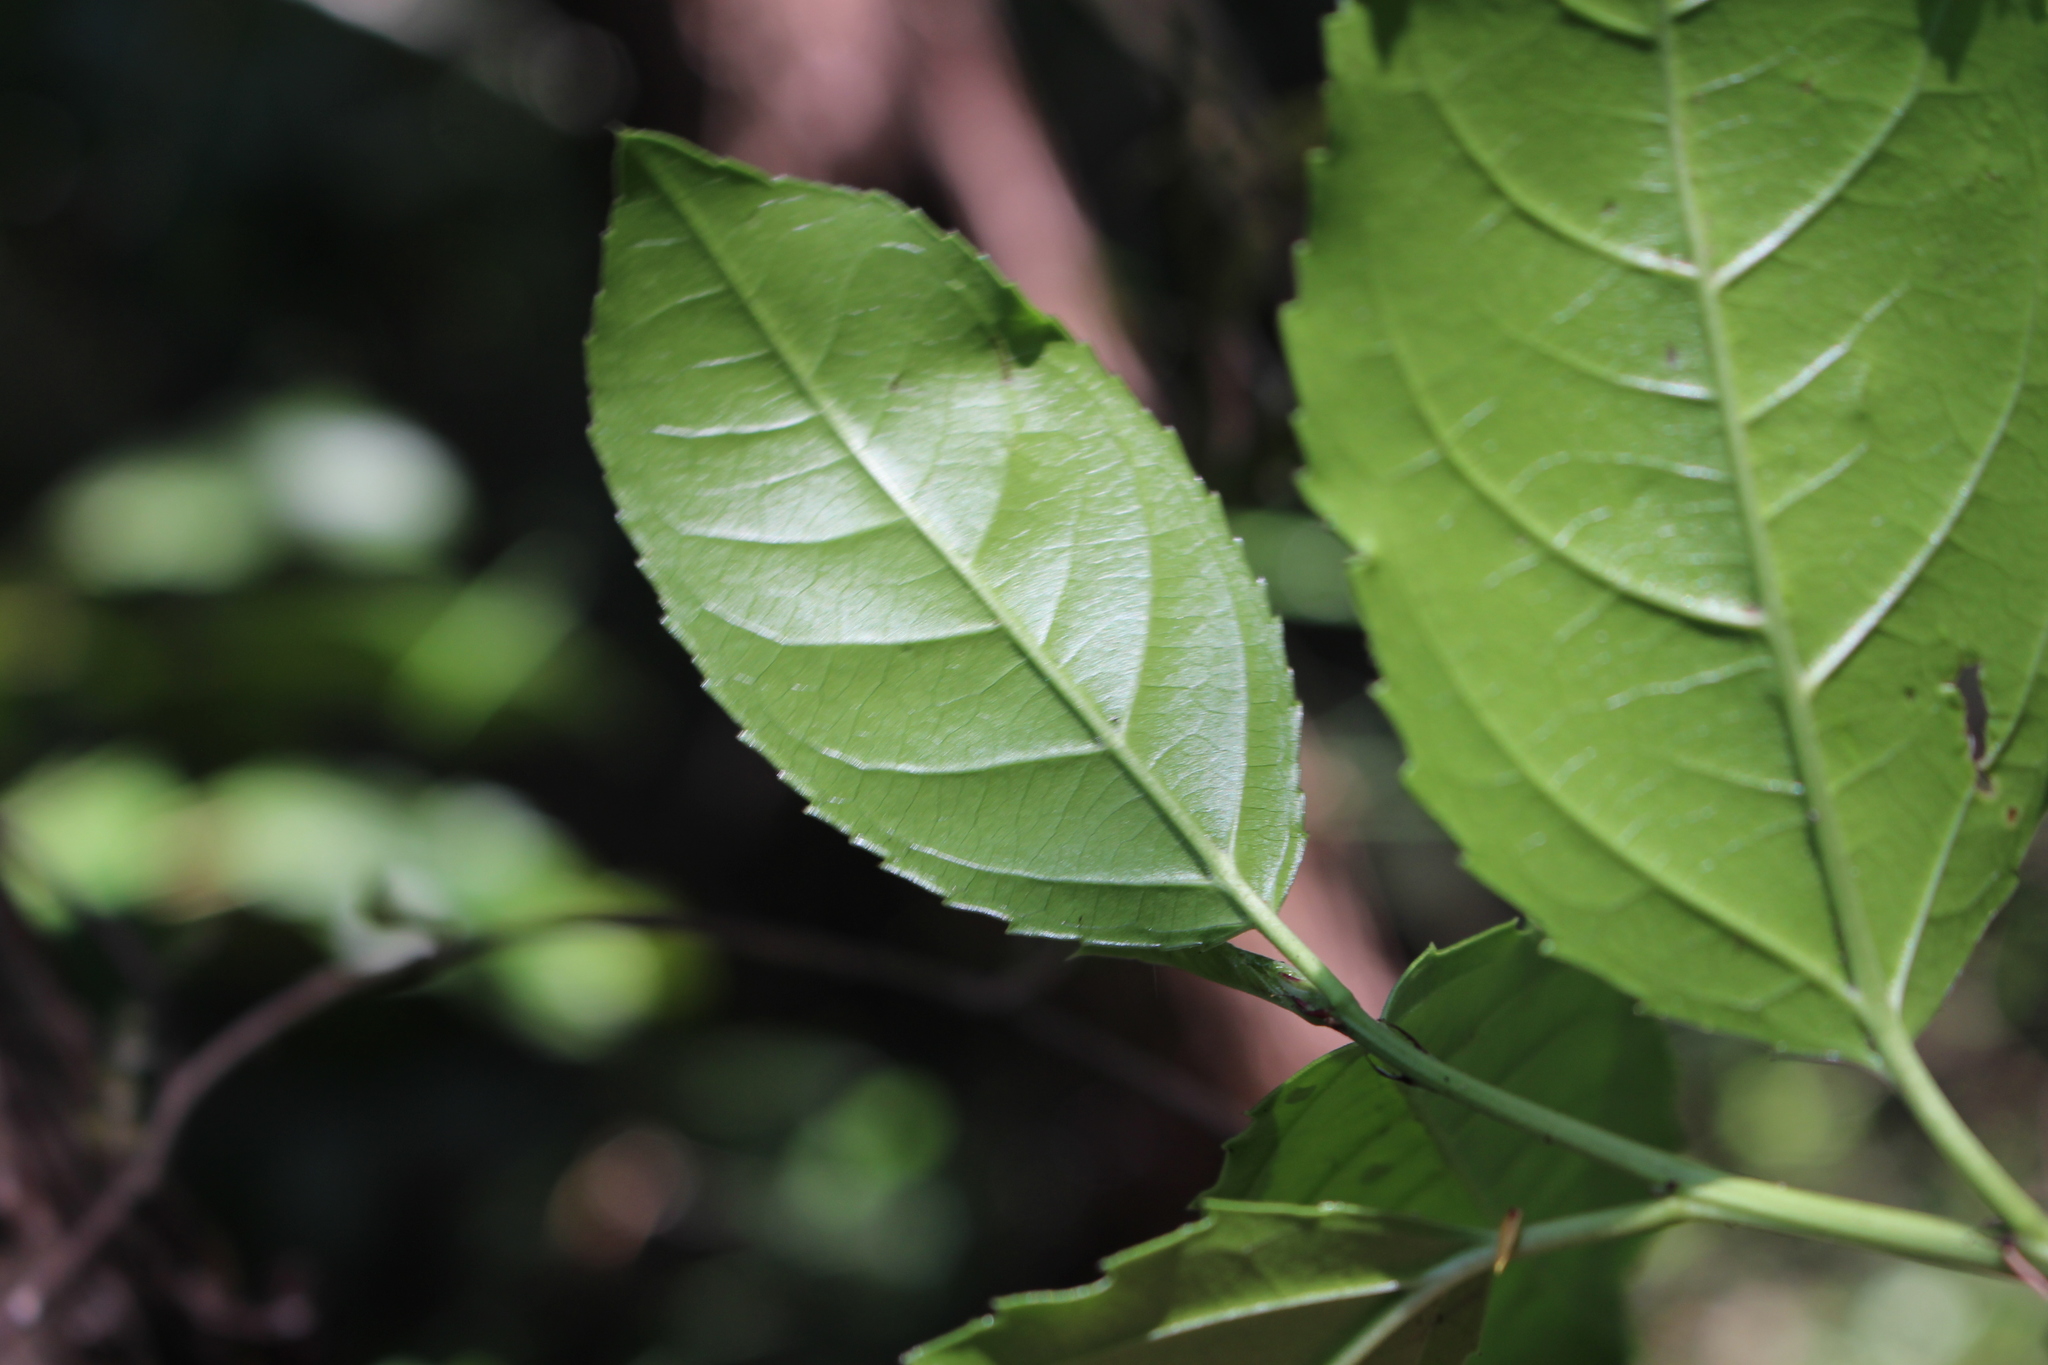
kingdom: Plantae
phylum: Tracheophyta
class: Magnoliopsida
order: Rosales
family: Rhamnaceae
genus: Rhamnus
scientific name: Rhamnus alaternus
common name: Mediterranean buckthorn
